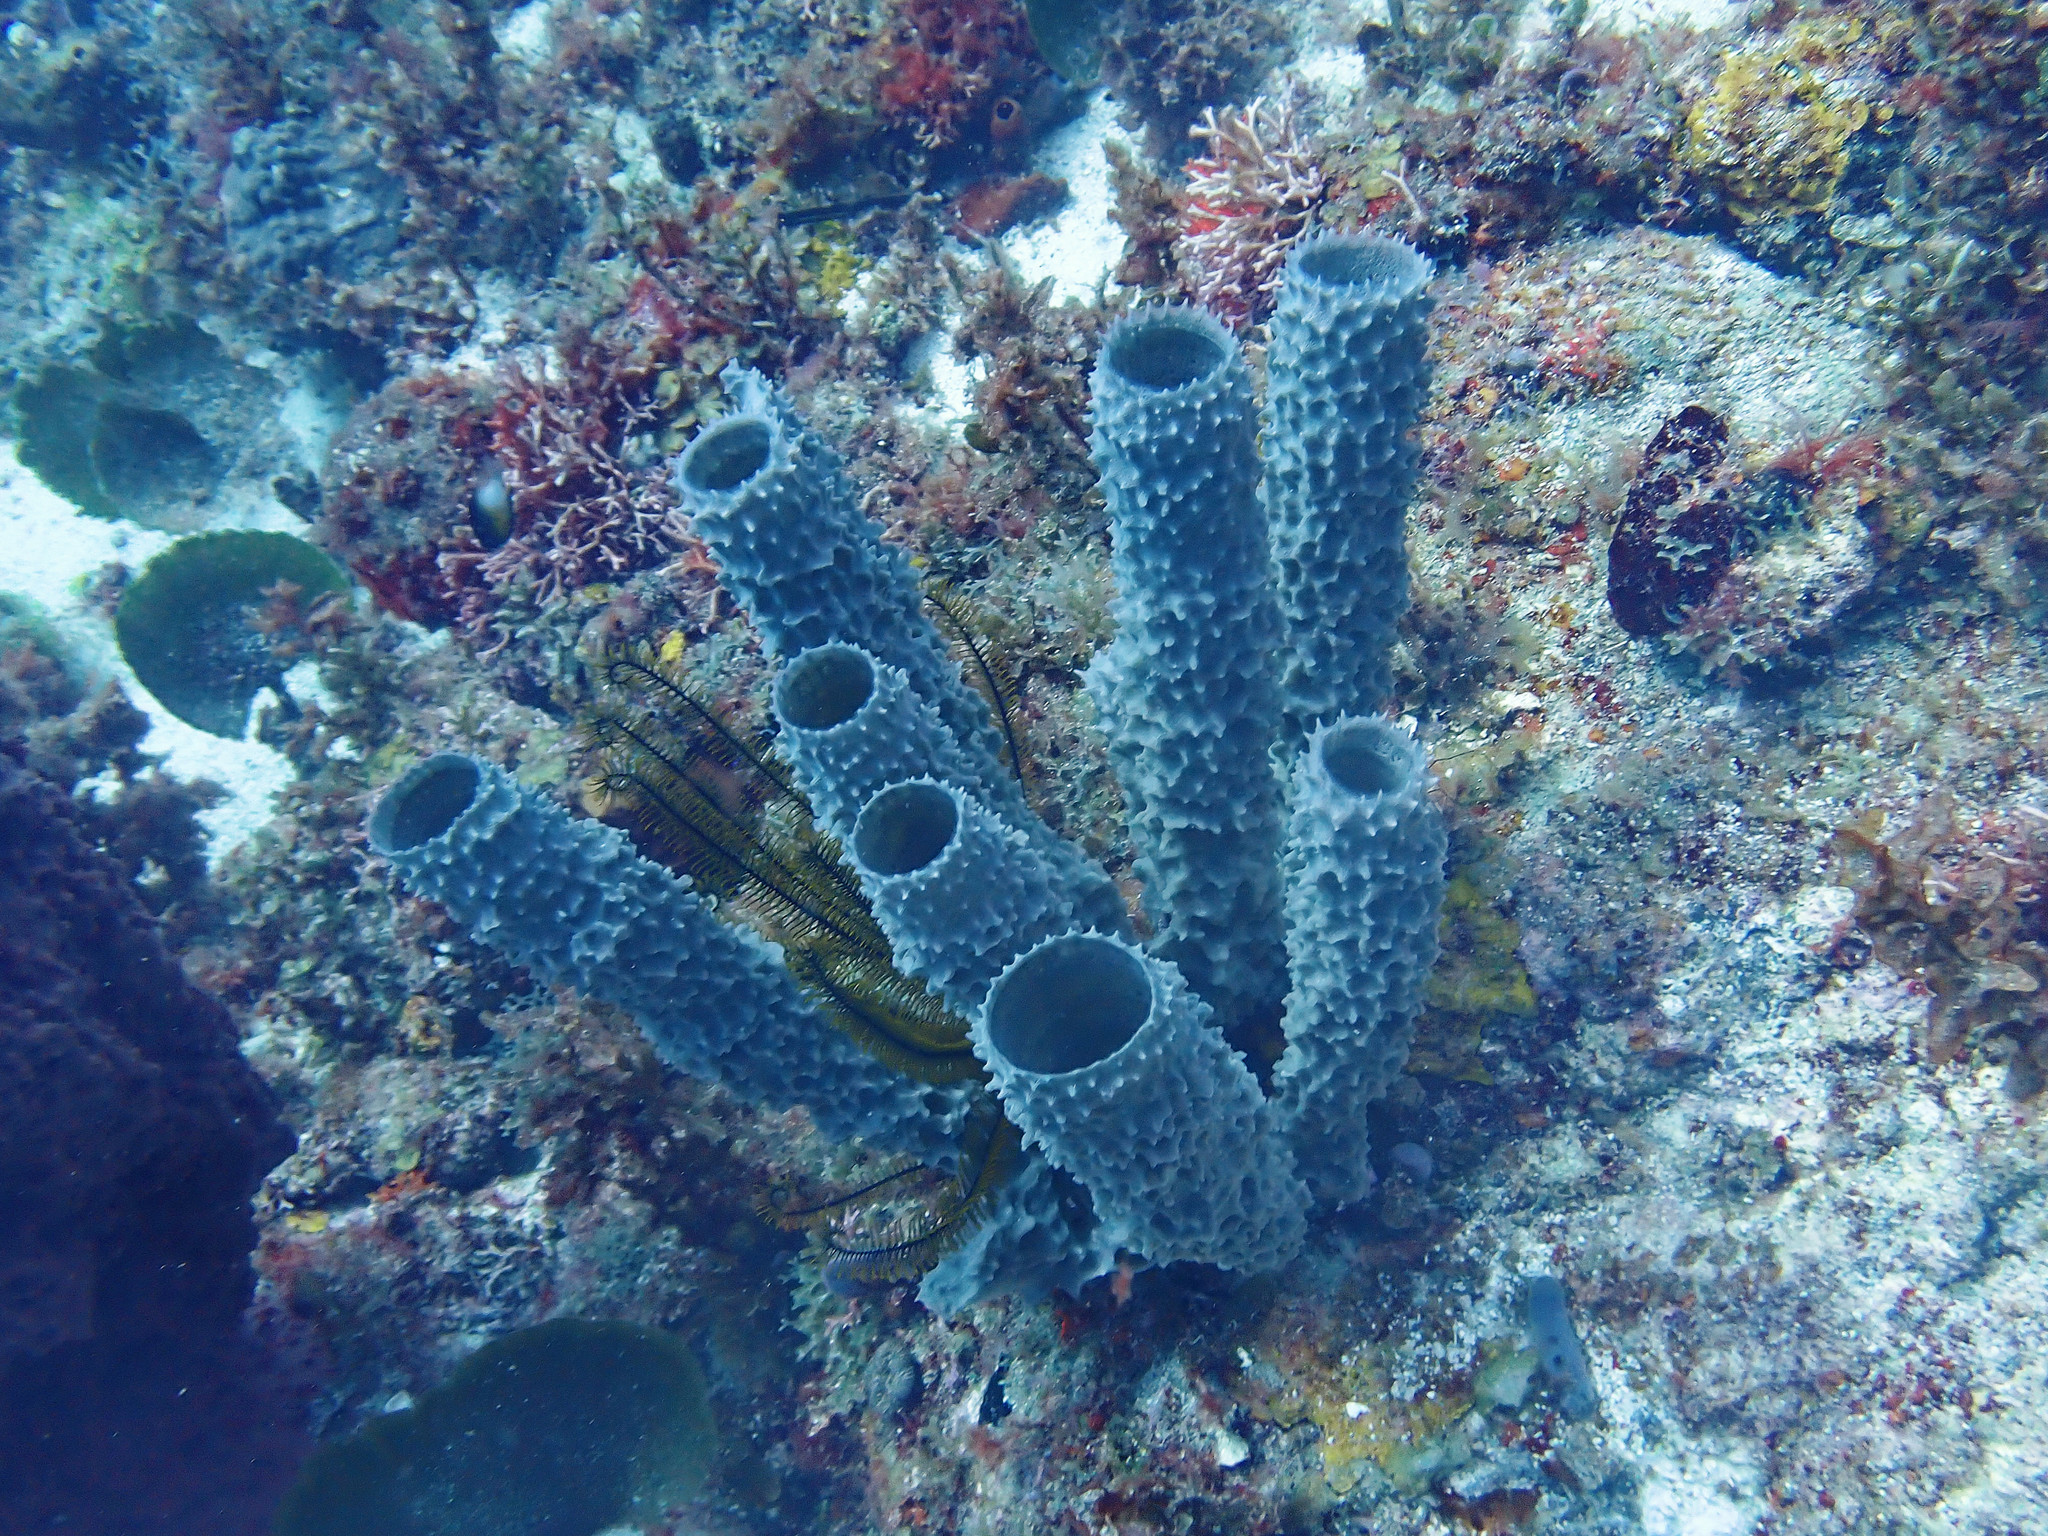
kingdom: Animalia
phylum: Porifera
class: Demospongiae
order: Haplosclerida
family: Callyspongiidae
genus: Callyspongia
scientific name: Callyspongia aculeata
